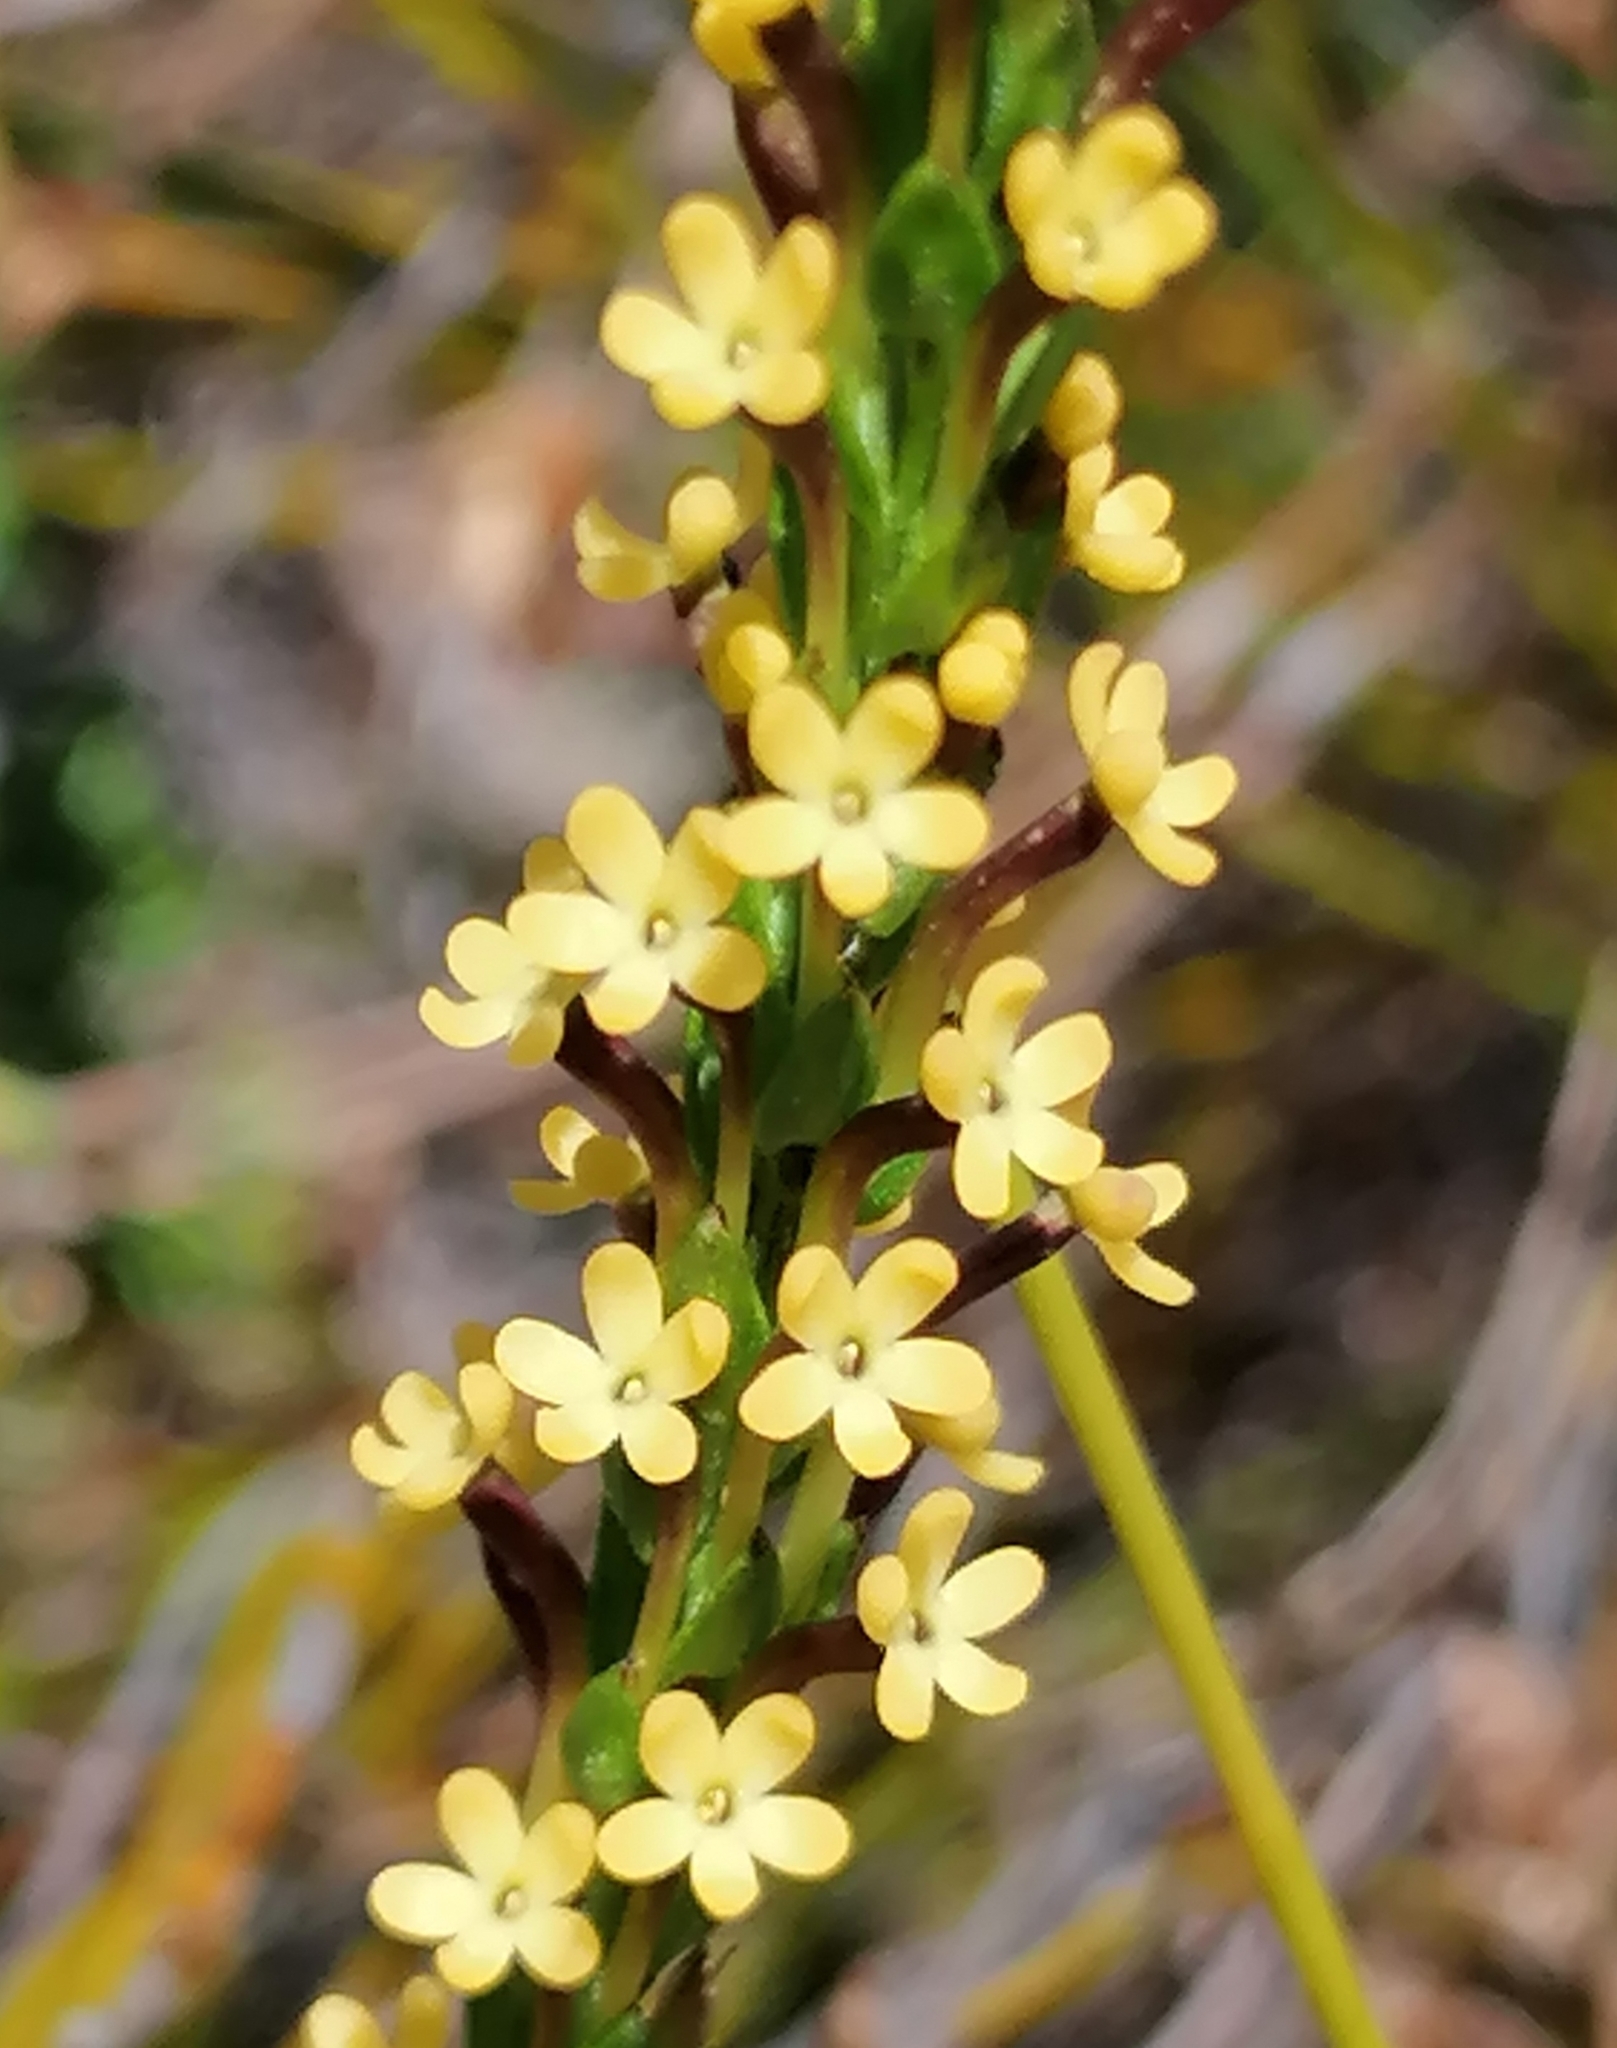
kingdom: Plantae
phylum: Tracheophyta
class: Magnoliopsida
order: Lamiales
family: Scrophulariaceae
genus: Microdon
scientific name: Microdon dubius
